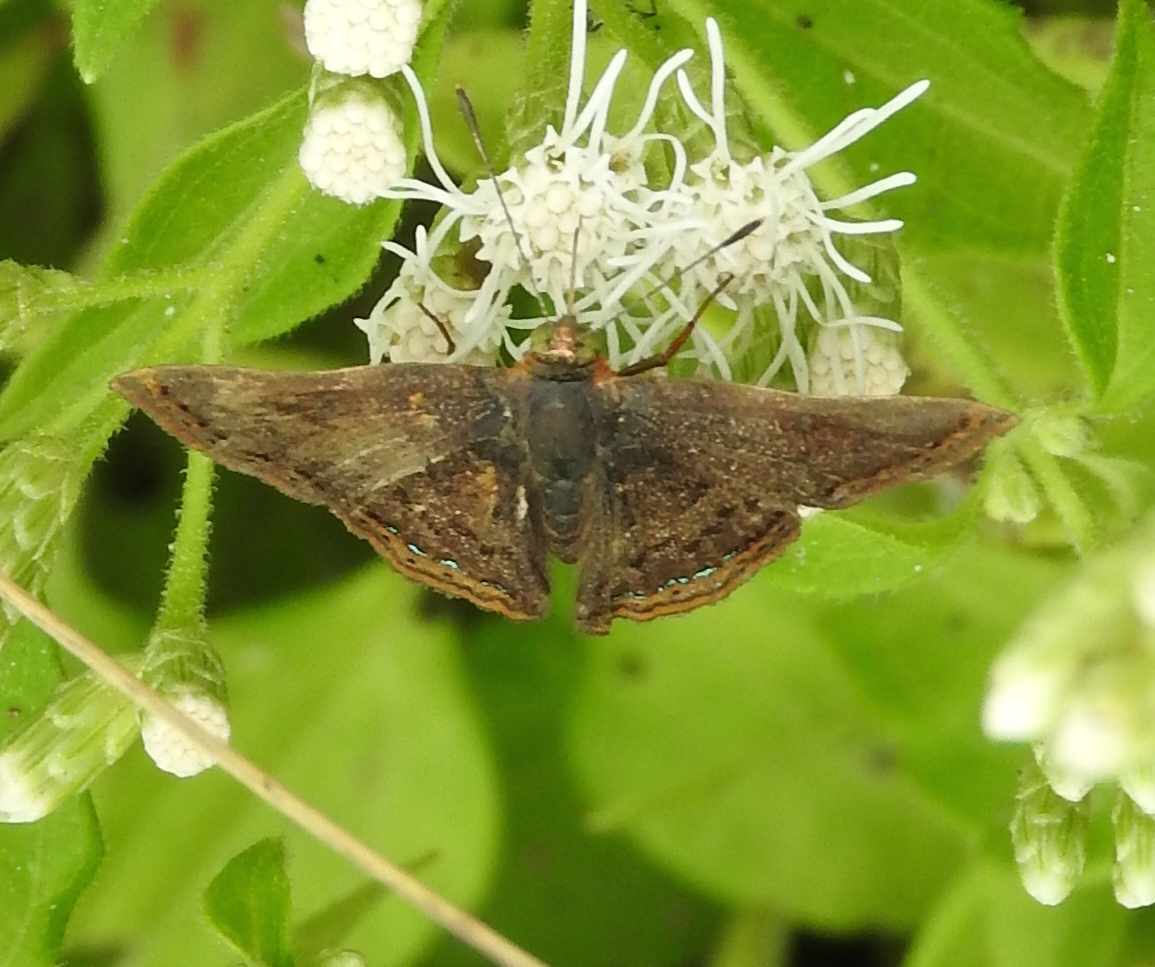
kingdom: Animalia
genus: Caria
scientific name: Caria ino
